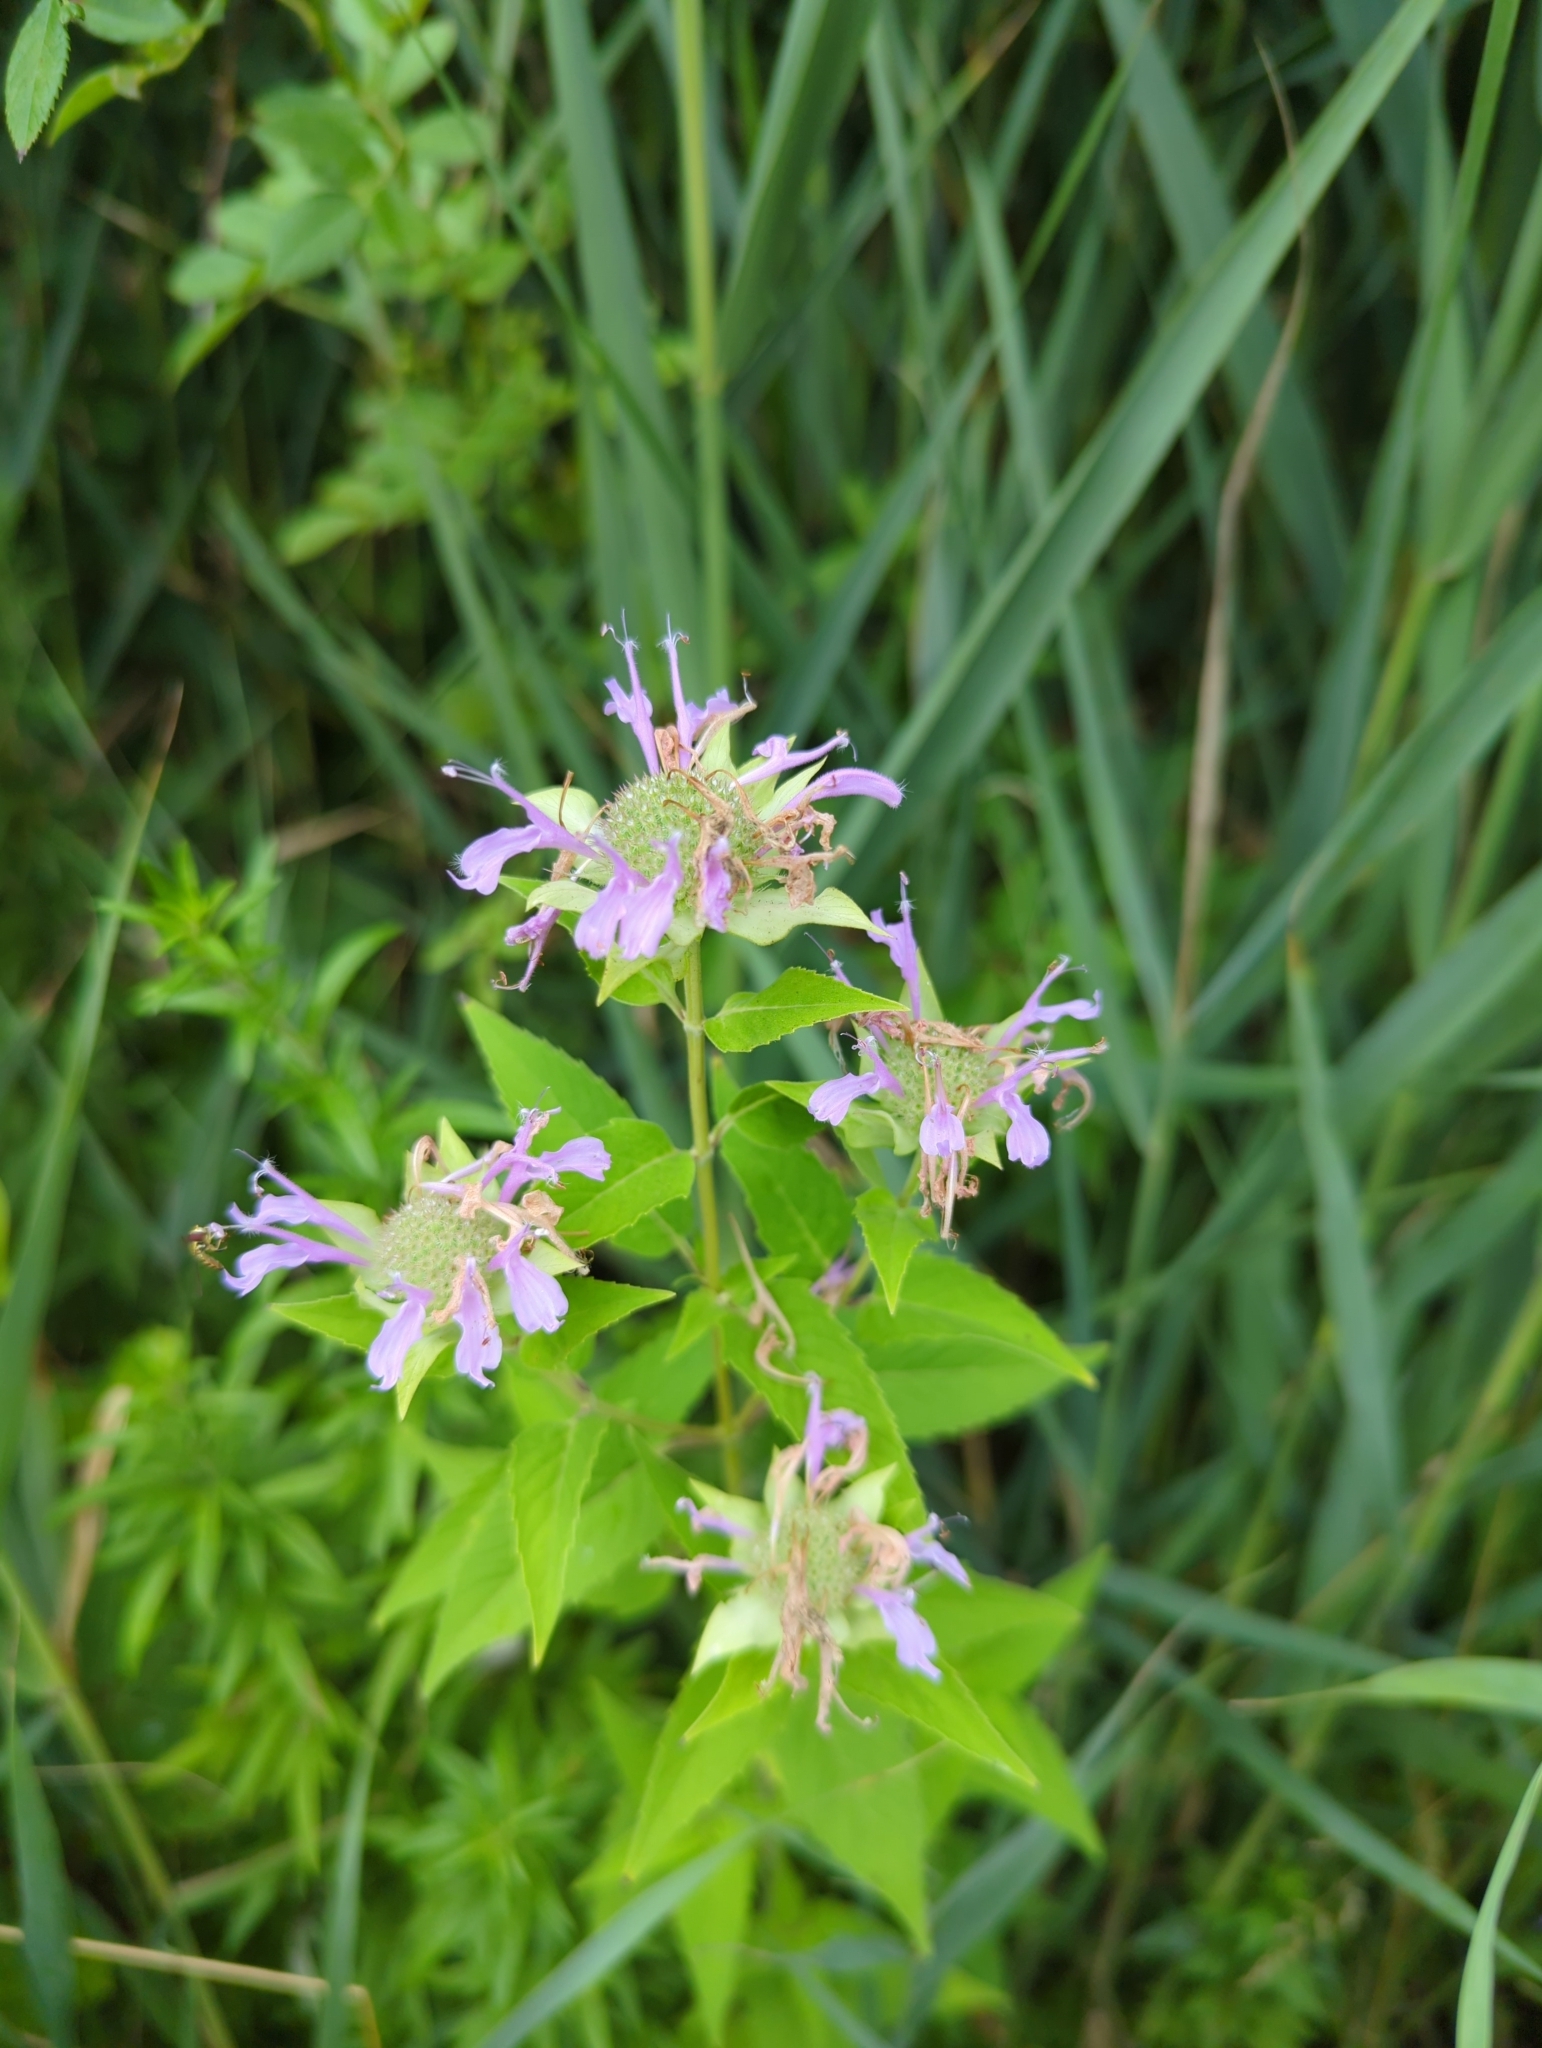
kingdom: Plantae
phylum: Tracheophyta
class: Magnoliopsida
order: Lamiales
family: Lamiaceae
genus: Monarda
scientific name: Monarda fistulosa
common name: Purple beebalm
